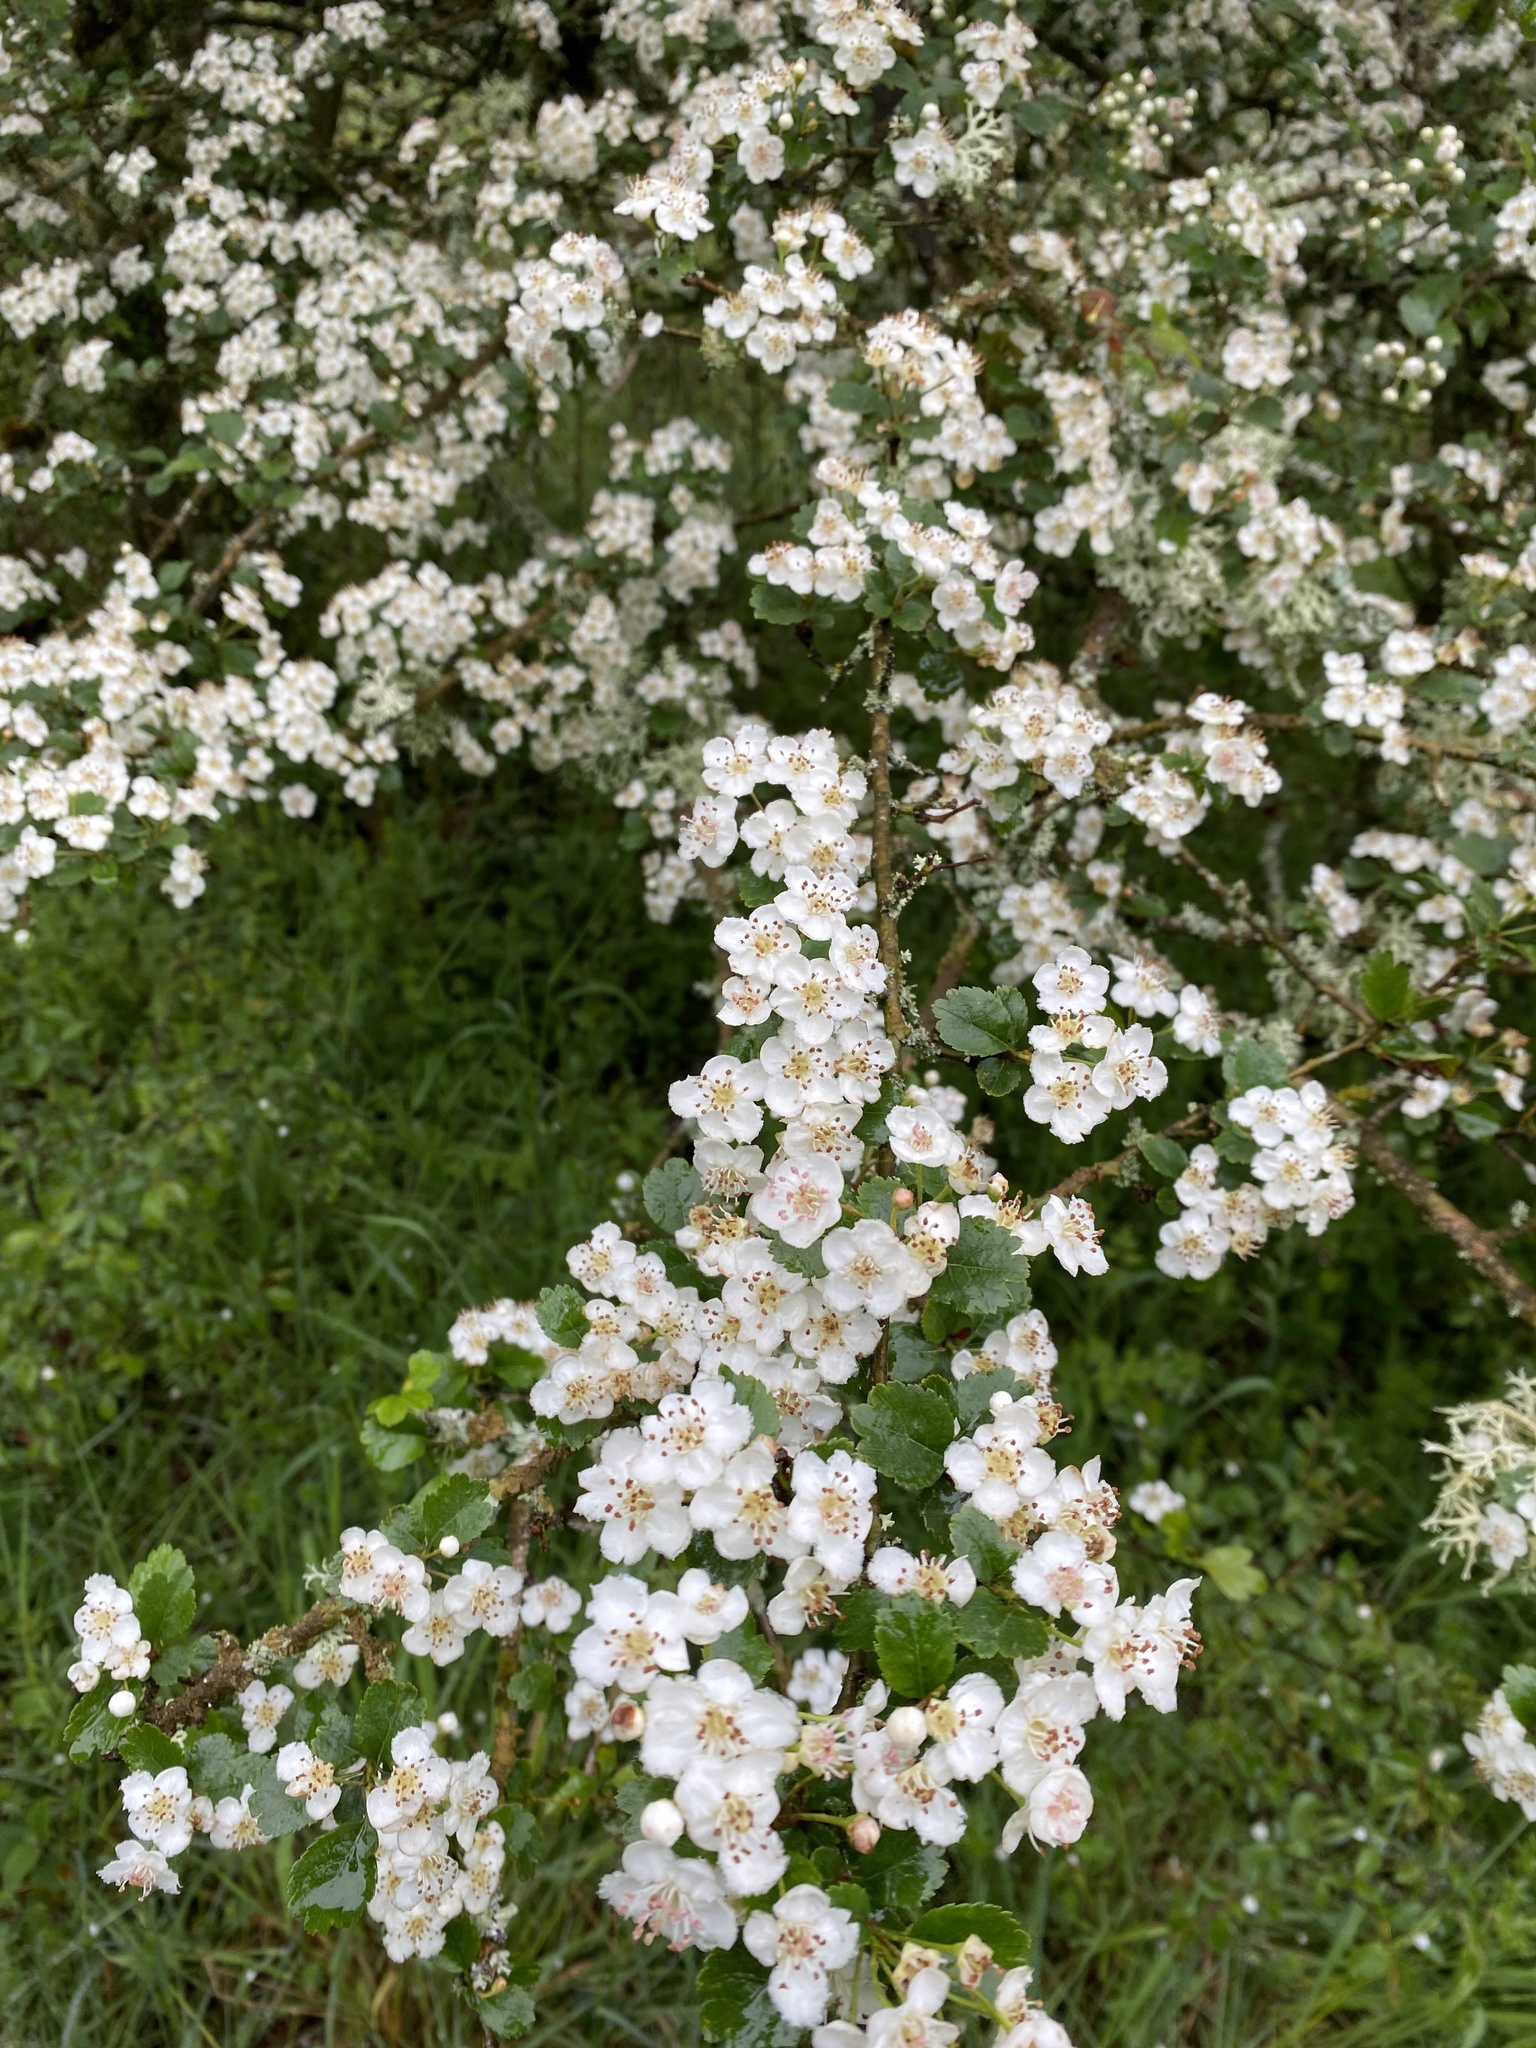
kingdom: Plantae
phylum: Tracheophyta
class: Magnoliopsida
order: Rosales
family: Rosaceae
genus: Crataegus
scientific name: Crataegus media
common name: Intermediate hawthorn
